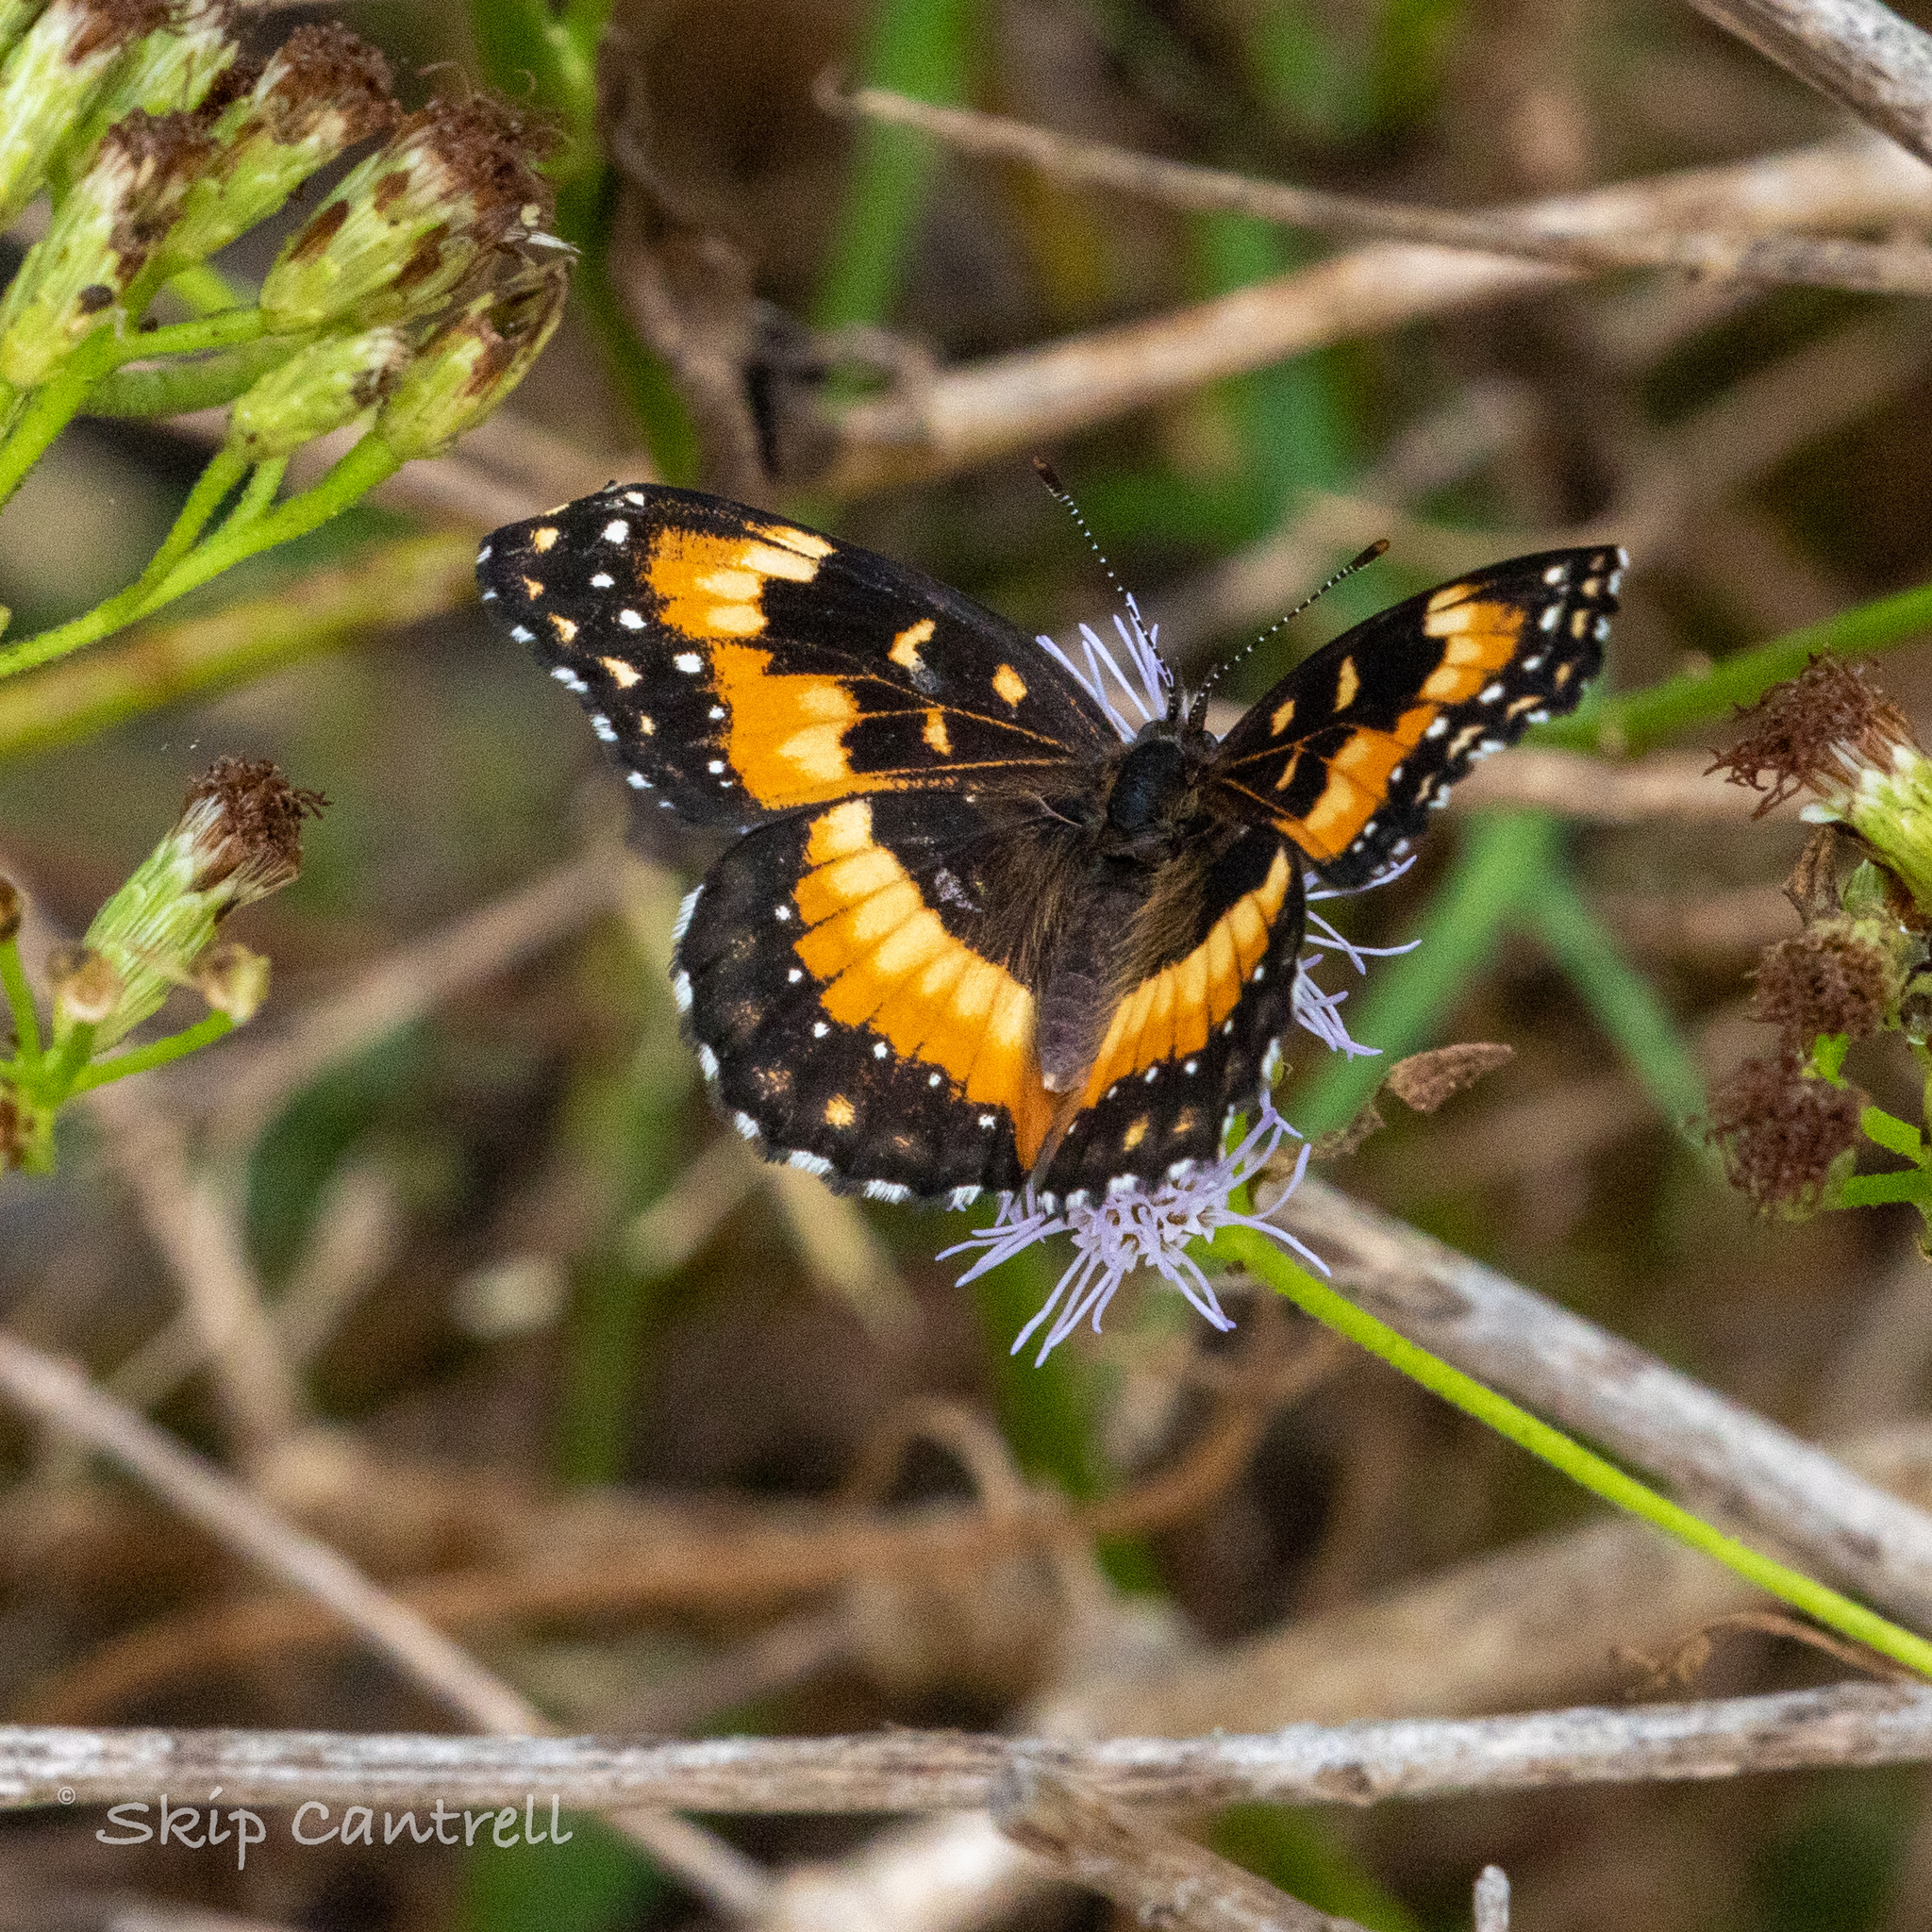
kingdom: Animalia
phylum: Arthropoda
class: Insecta
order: Lepidoptera
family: Nymphalidae
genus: Chlosyne
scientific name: Chlosyne lacinia
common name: Bordered patch
